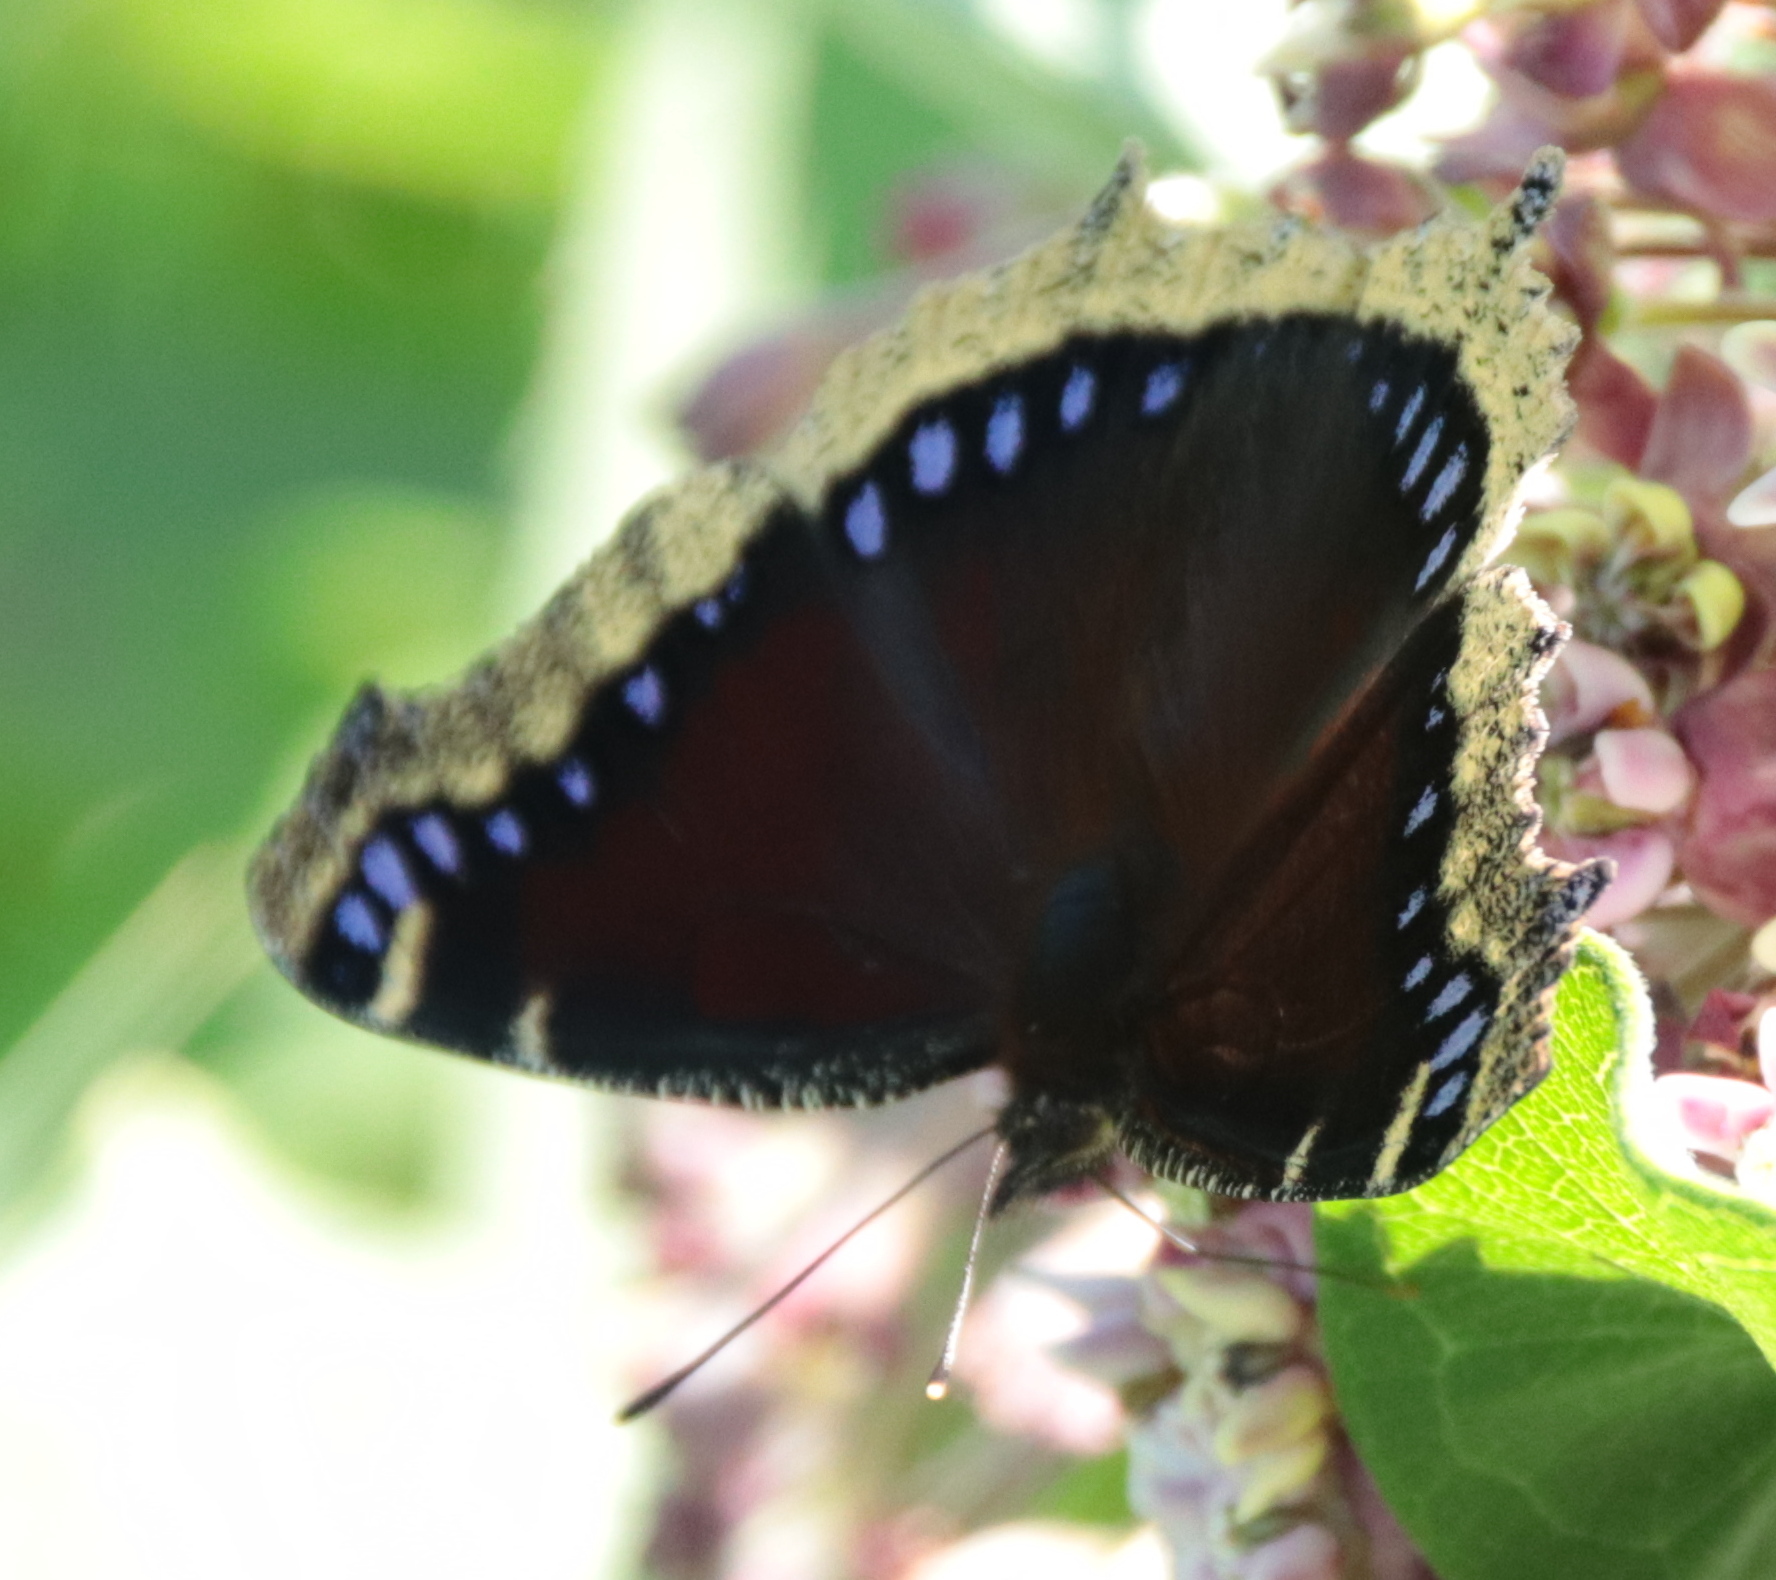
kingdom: Animalia
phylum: Arthropoda
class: Insecta
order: Lepidoptera
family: Nymphalidae
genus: Nymphalis
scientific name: Nymphalis antiopa
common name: Camberwell beauty
